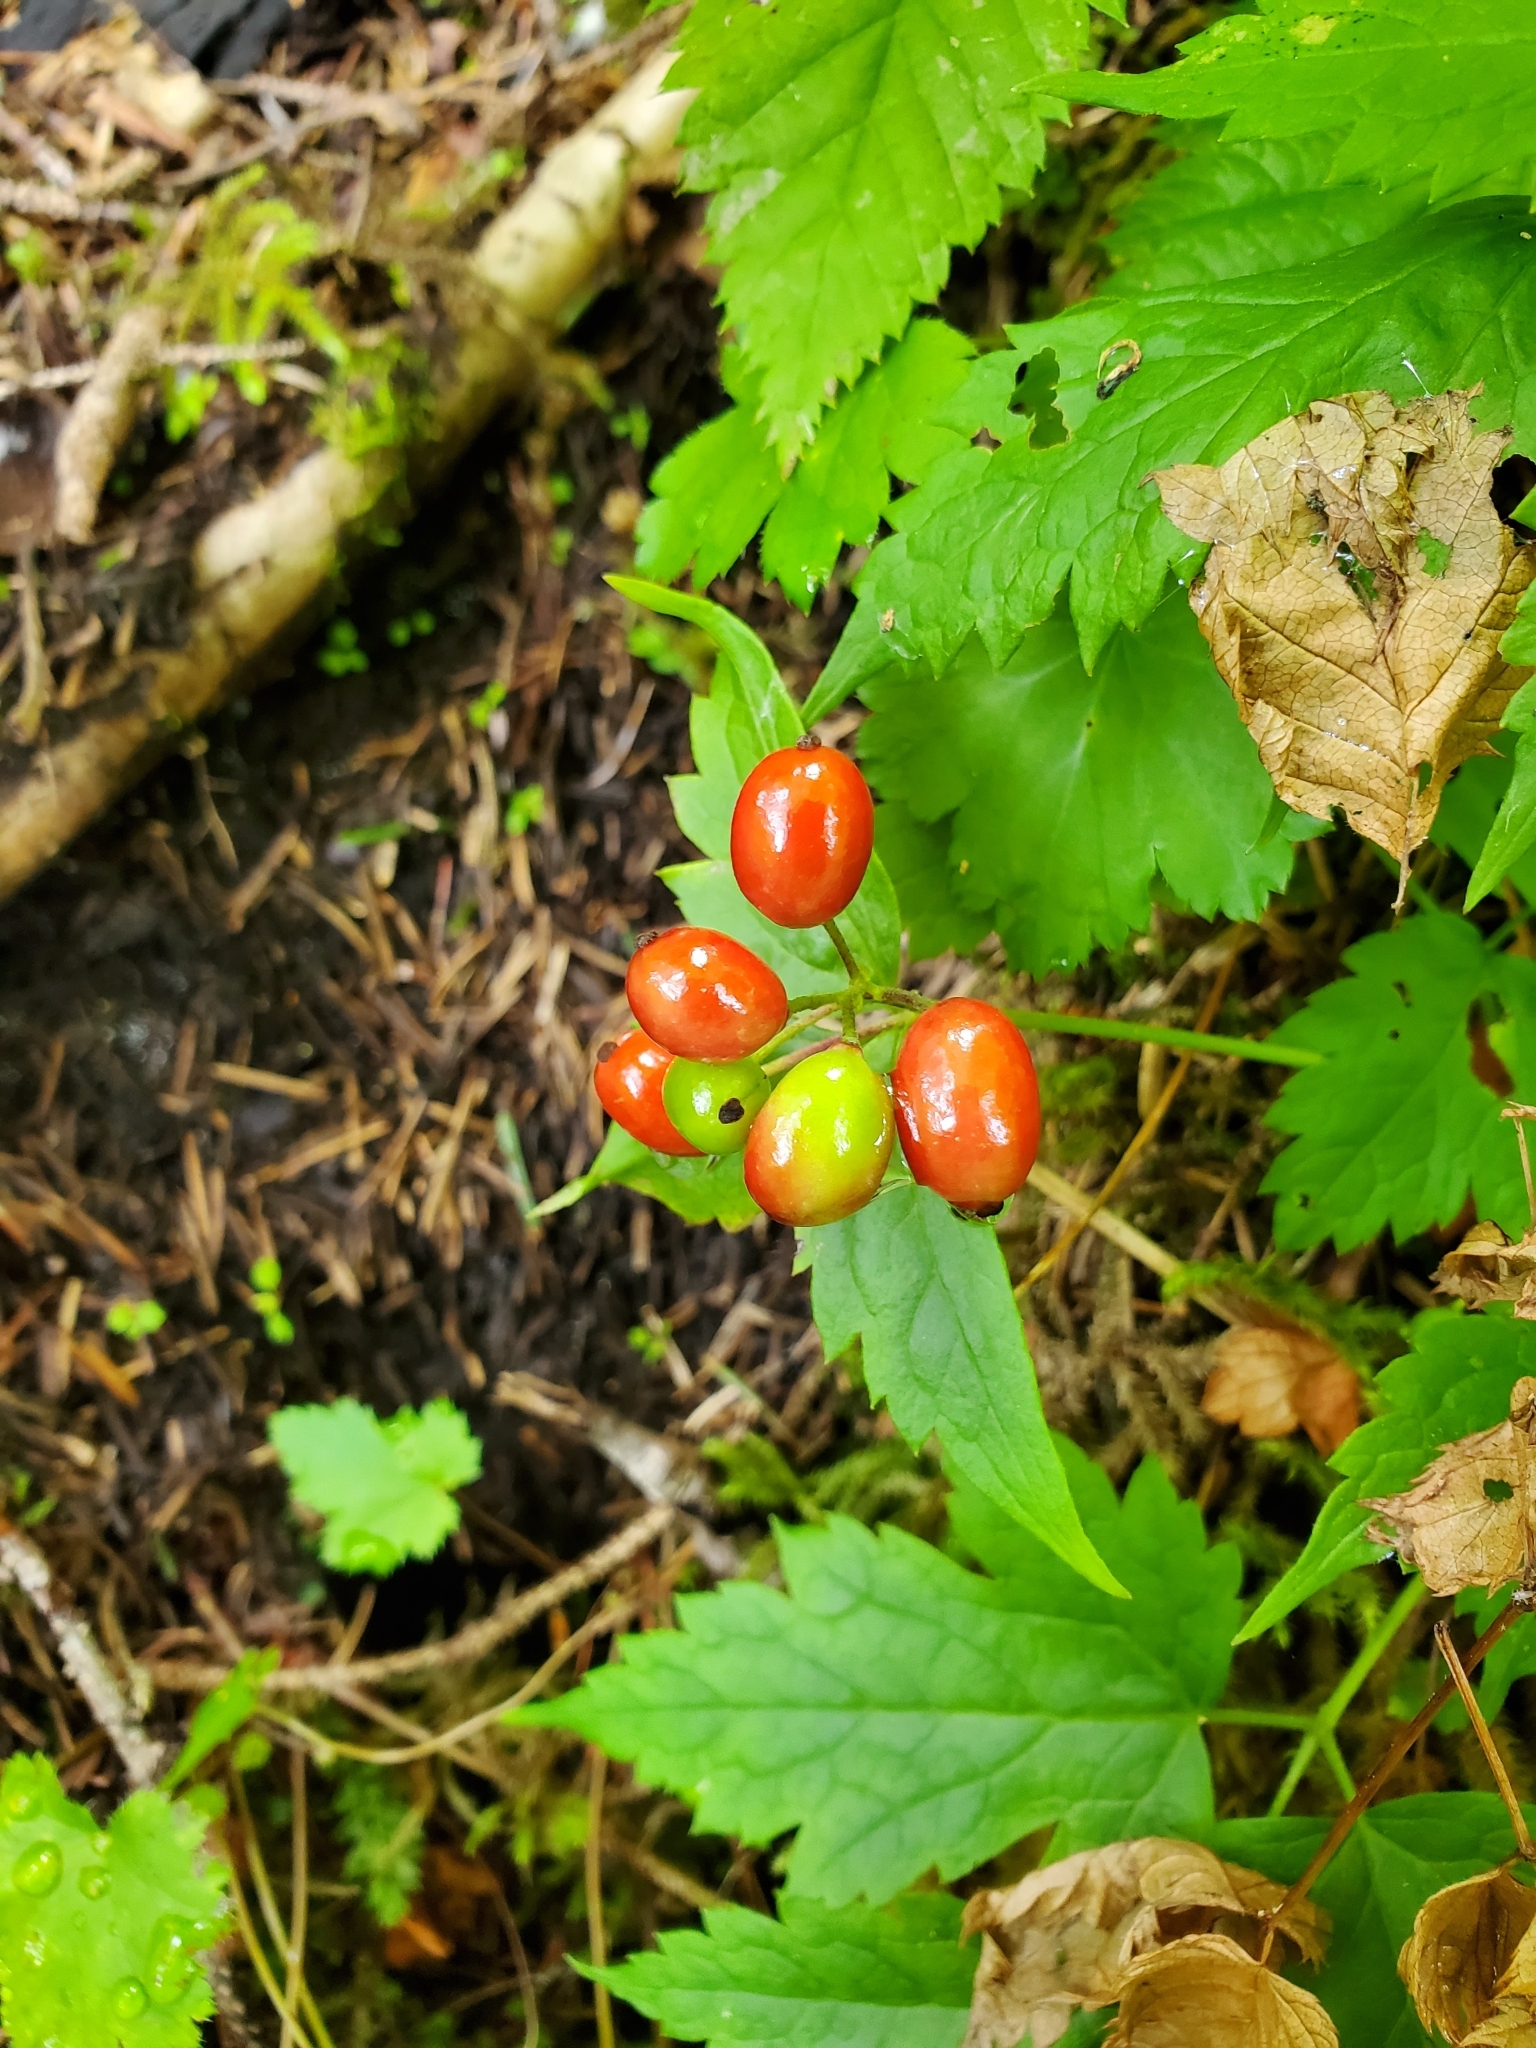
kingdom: Plantae
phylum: Tracheophyta
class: Magnoliopsida
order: Ranunculales
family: Ranunculaceae
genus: Actaea
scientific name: Actaea rubra
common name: Red baneberry
